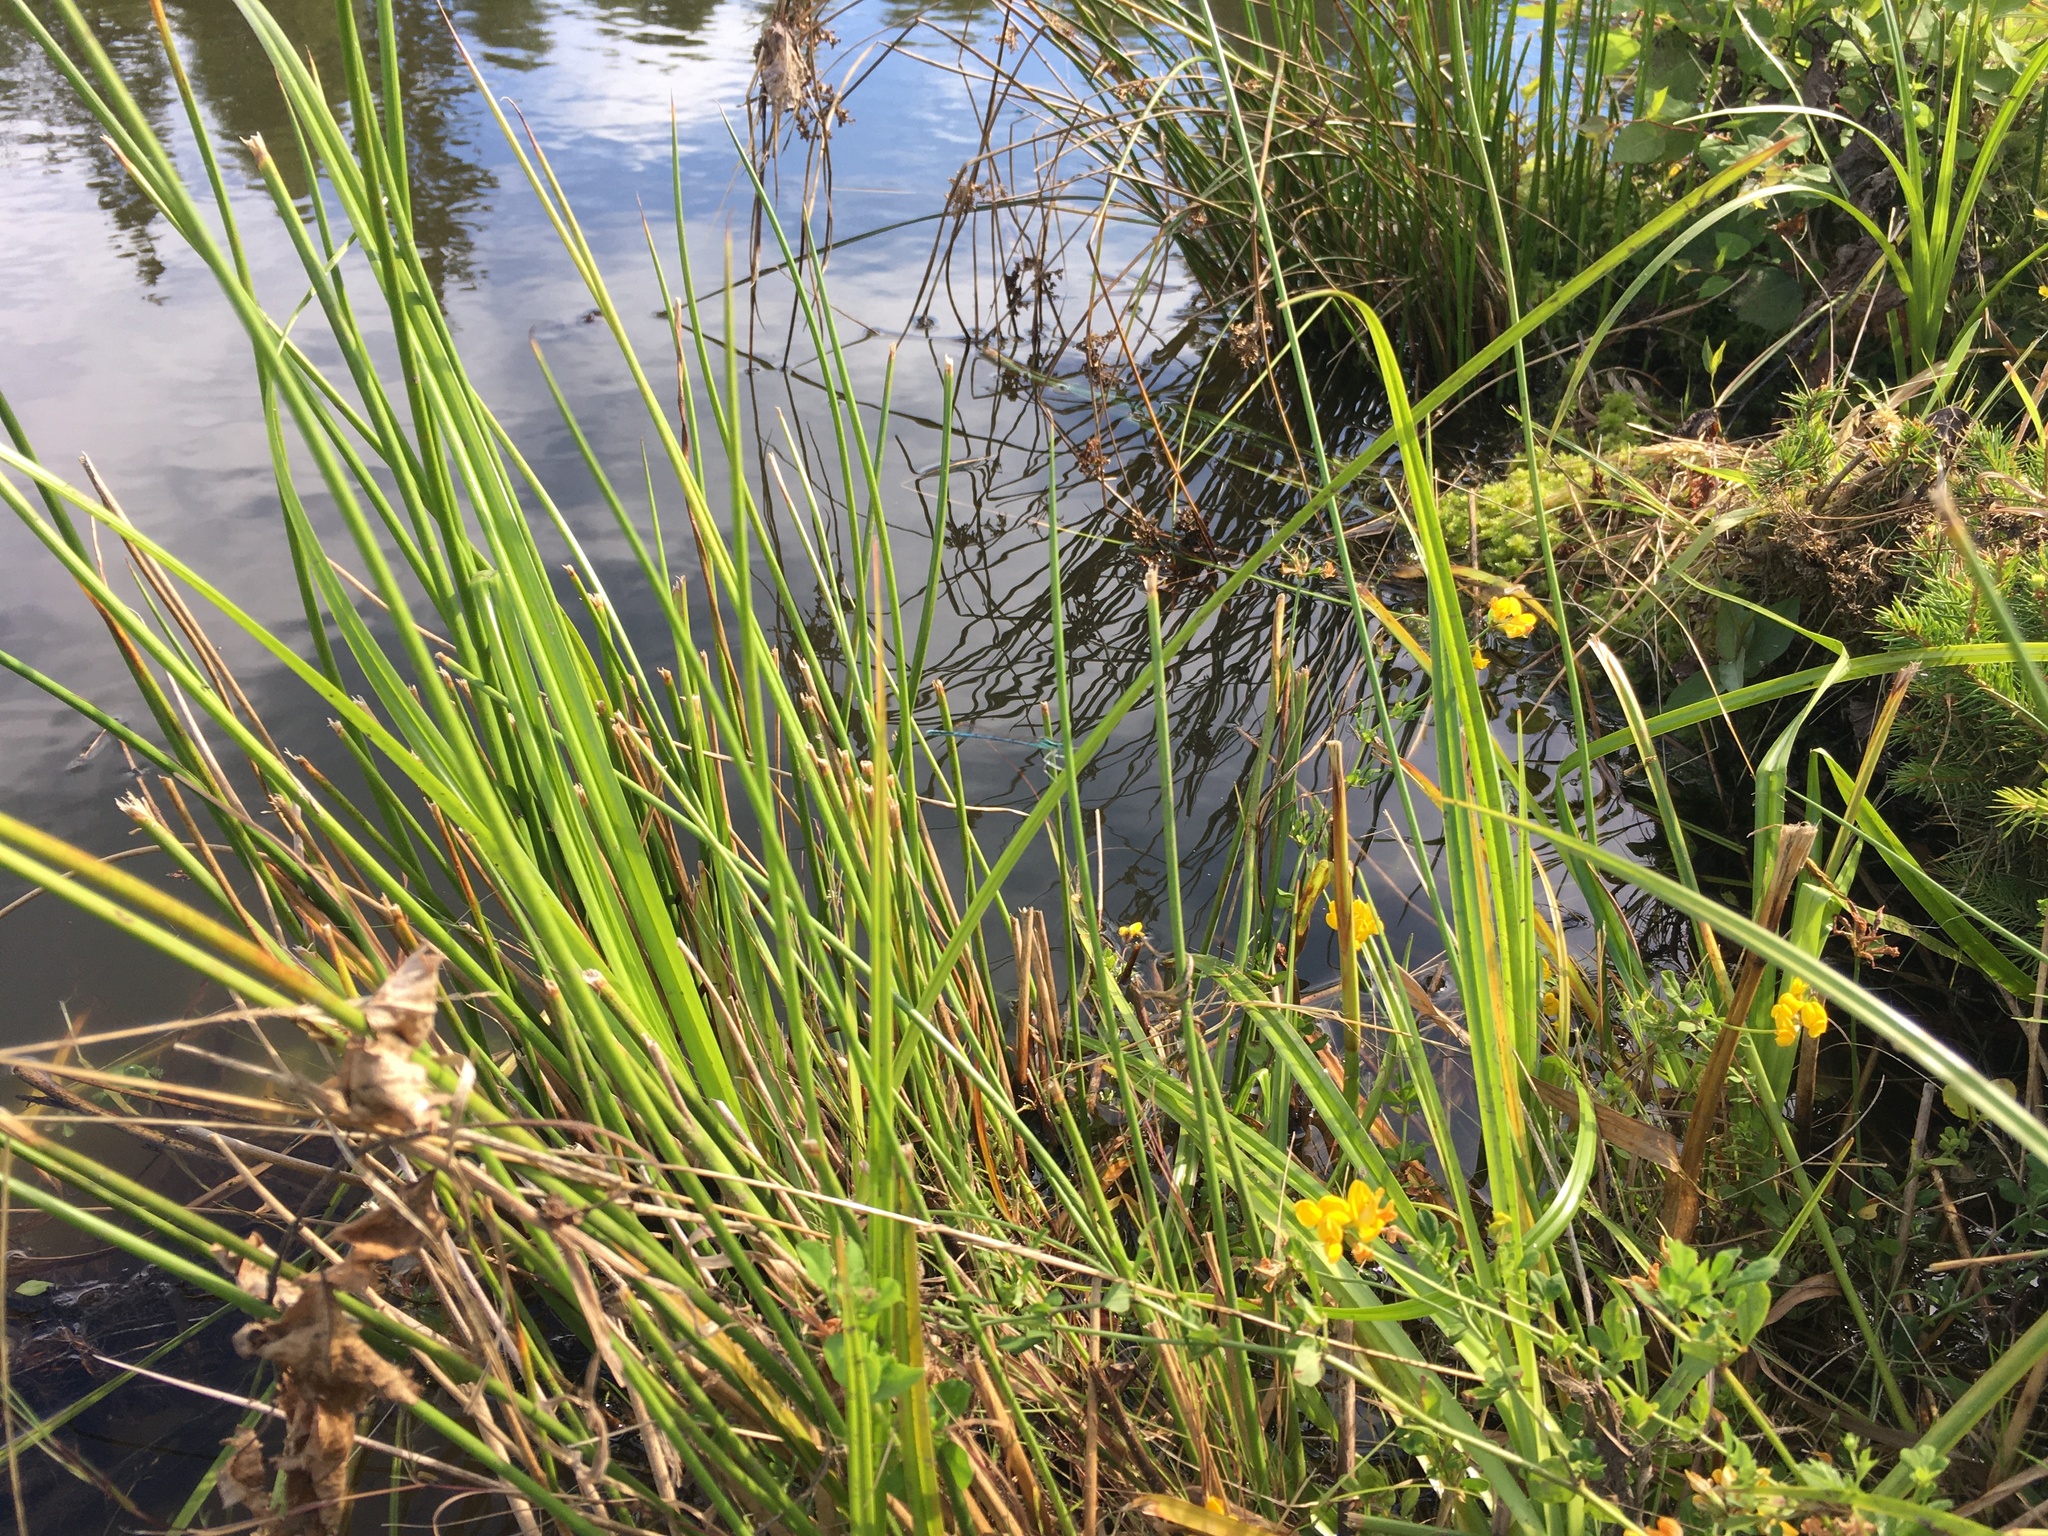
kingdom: Animalia
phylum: Arthropoda
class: Insecta
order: Odonata
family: Platycnemididae
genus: Platycnemis
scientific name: Platycnemis pennipes
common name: White-legged damselfly
